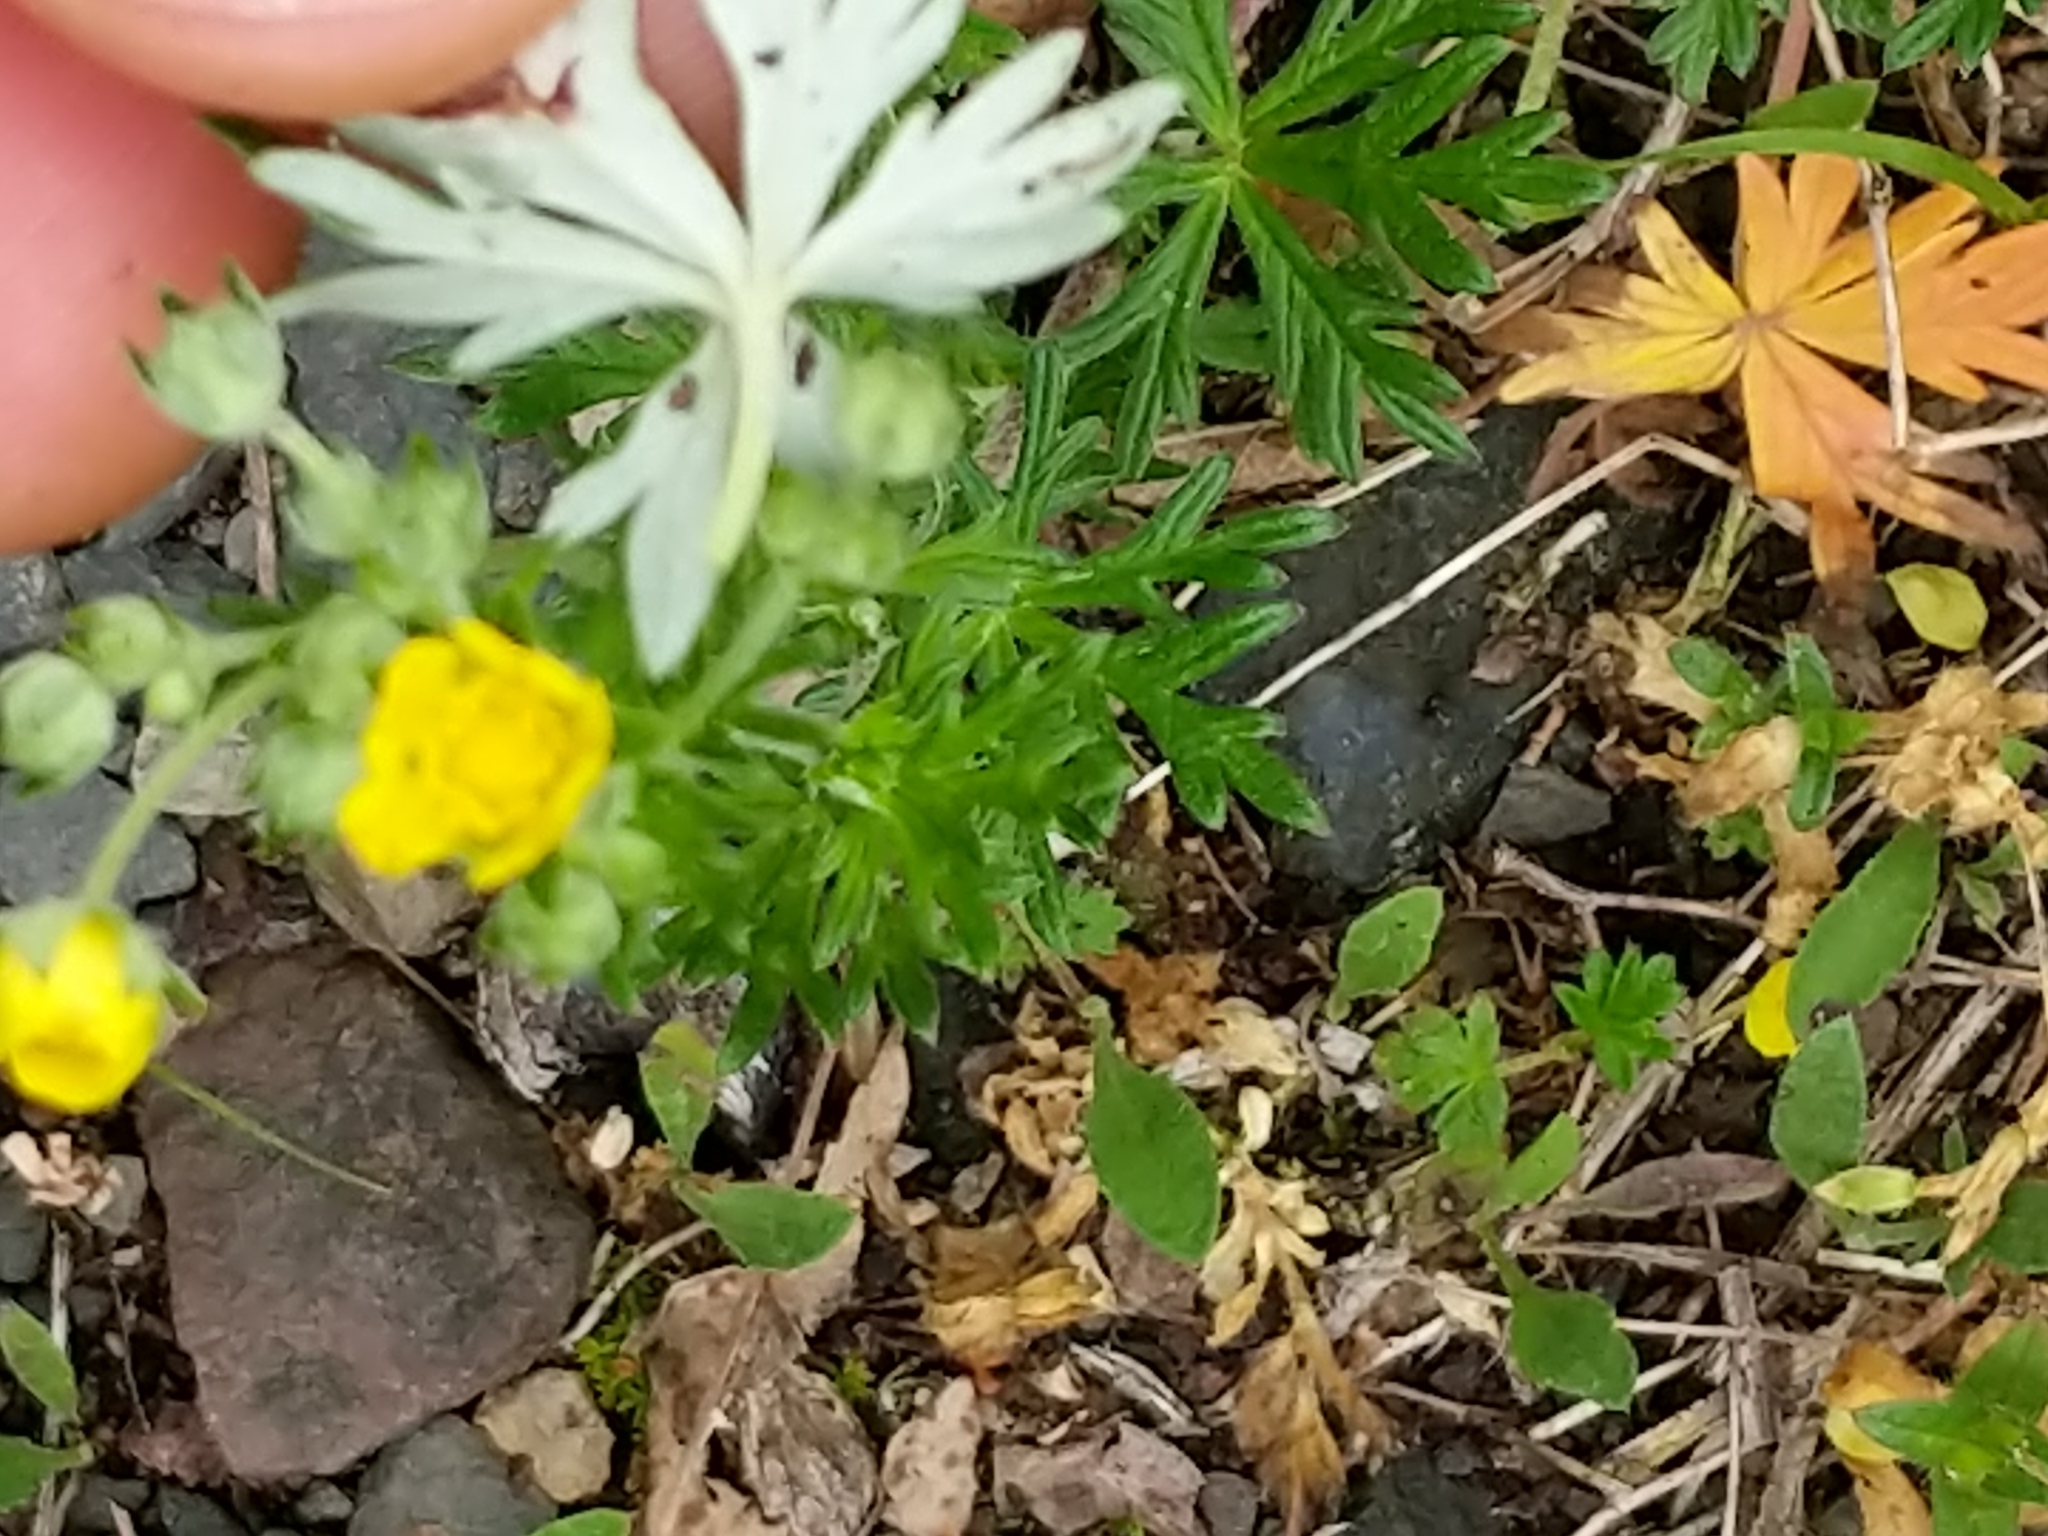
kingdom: Plantae
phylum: Tracheophyta
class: Magnoliopsida
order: Rosales
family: Rosaceae
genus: Potentilla
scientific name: Potentilla argentea
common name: Hoary cinquefoil
